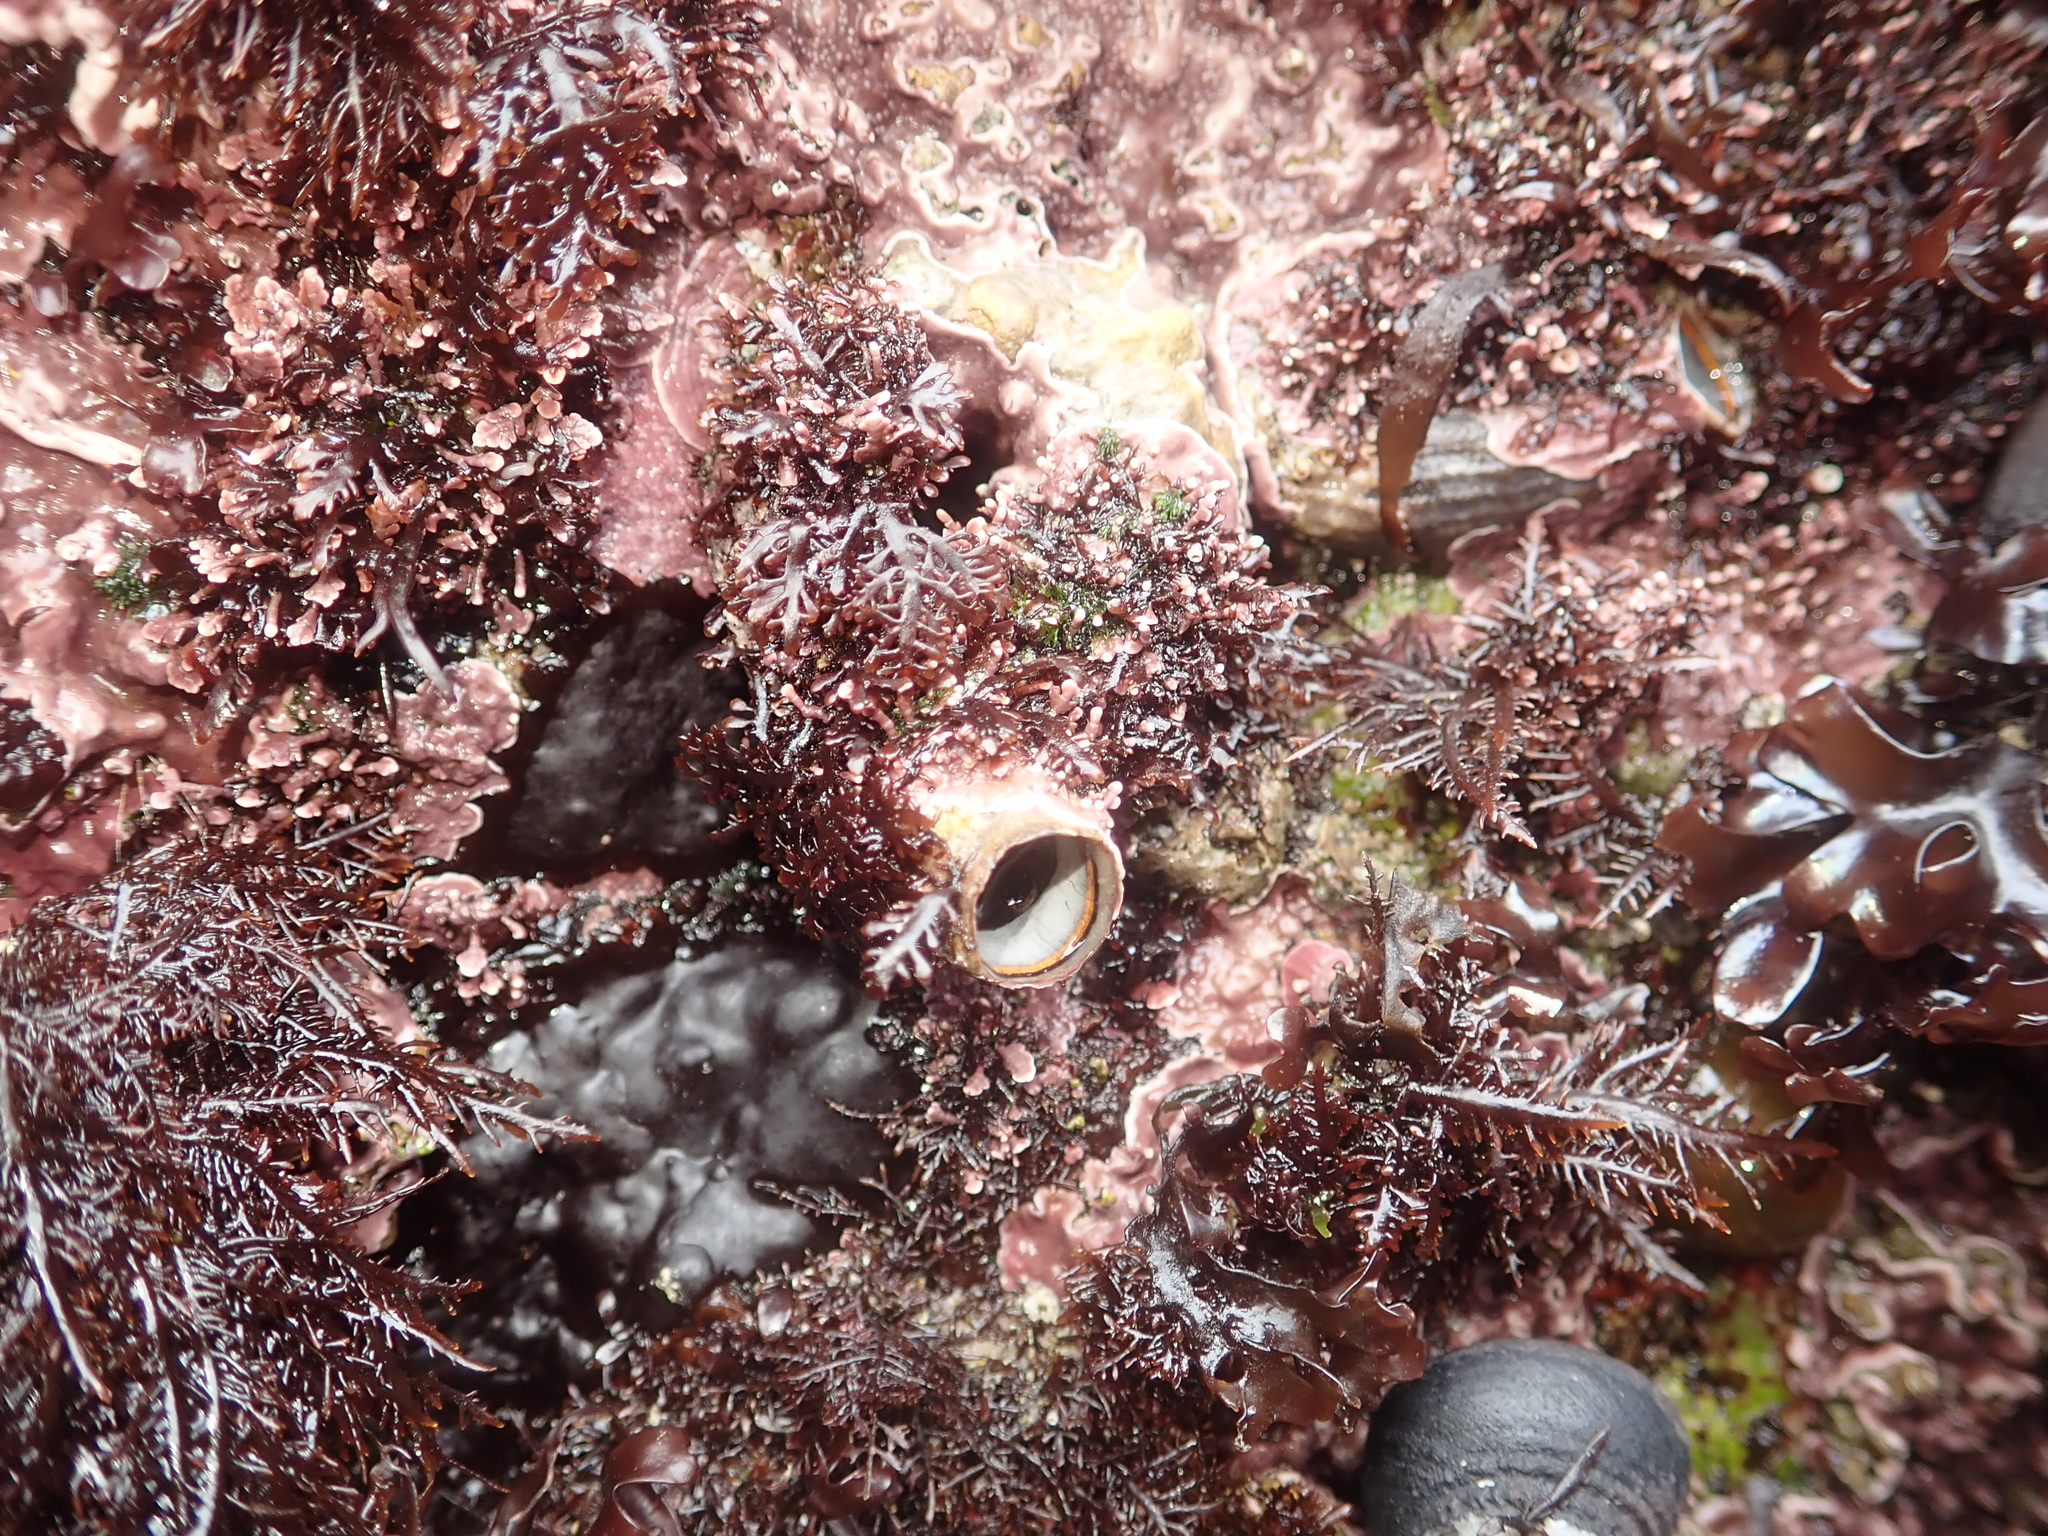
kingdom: Animalia
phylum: Mollusca
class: Gastropoda
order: Littorinimorpha
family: Vermetidae
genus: Thylacodes
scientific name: Thylacodes squamigerus
